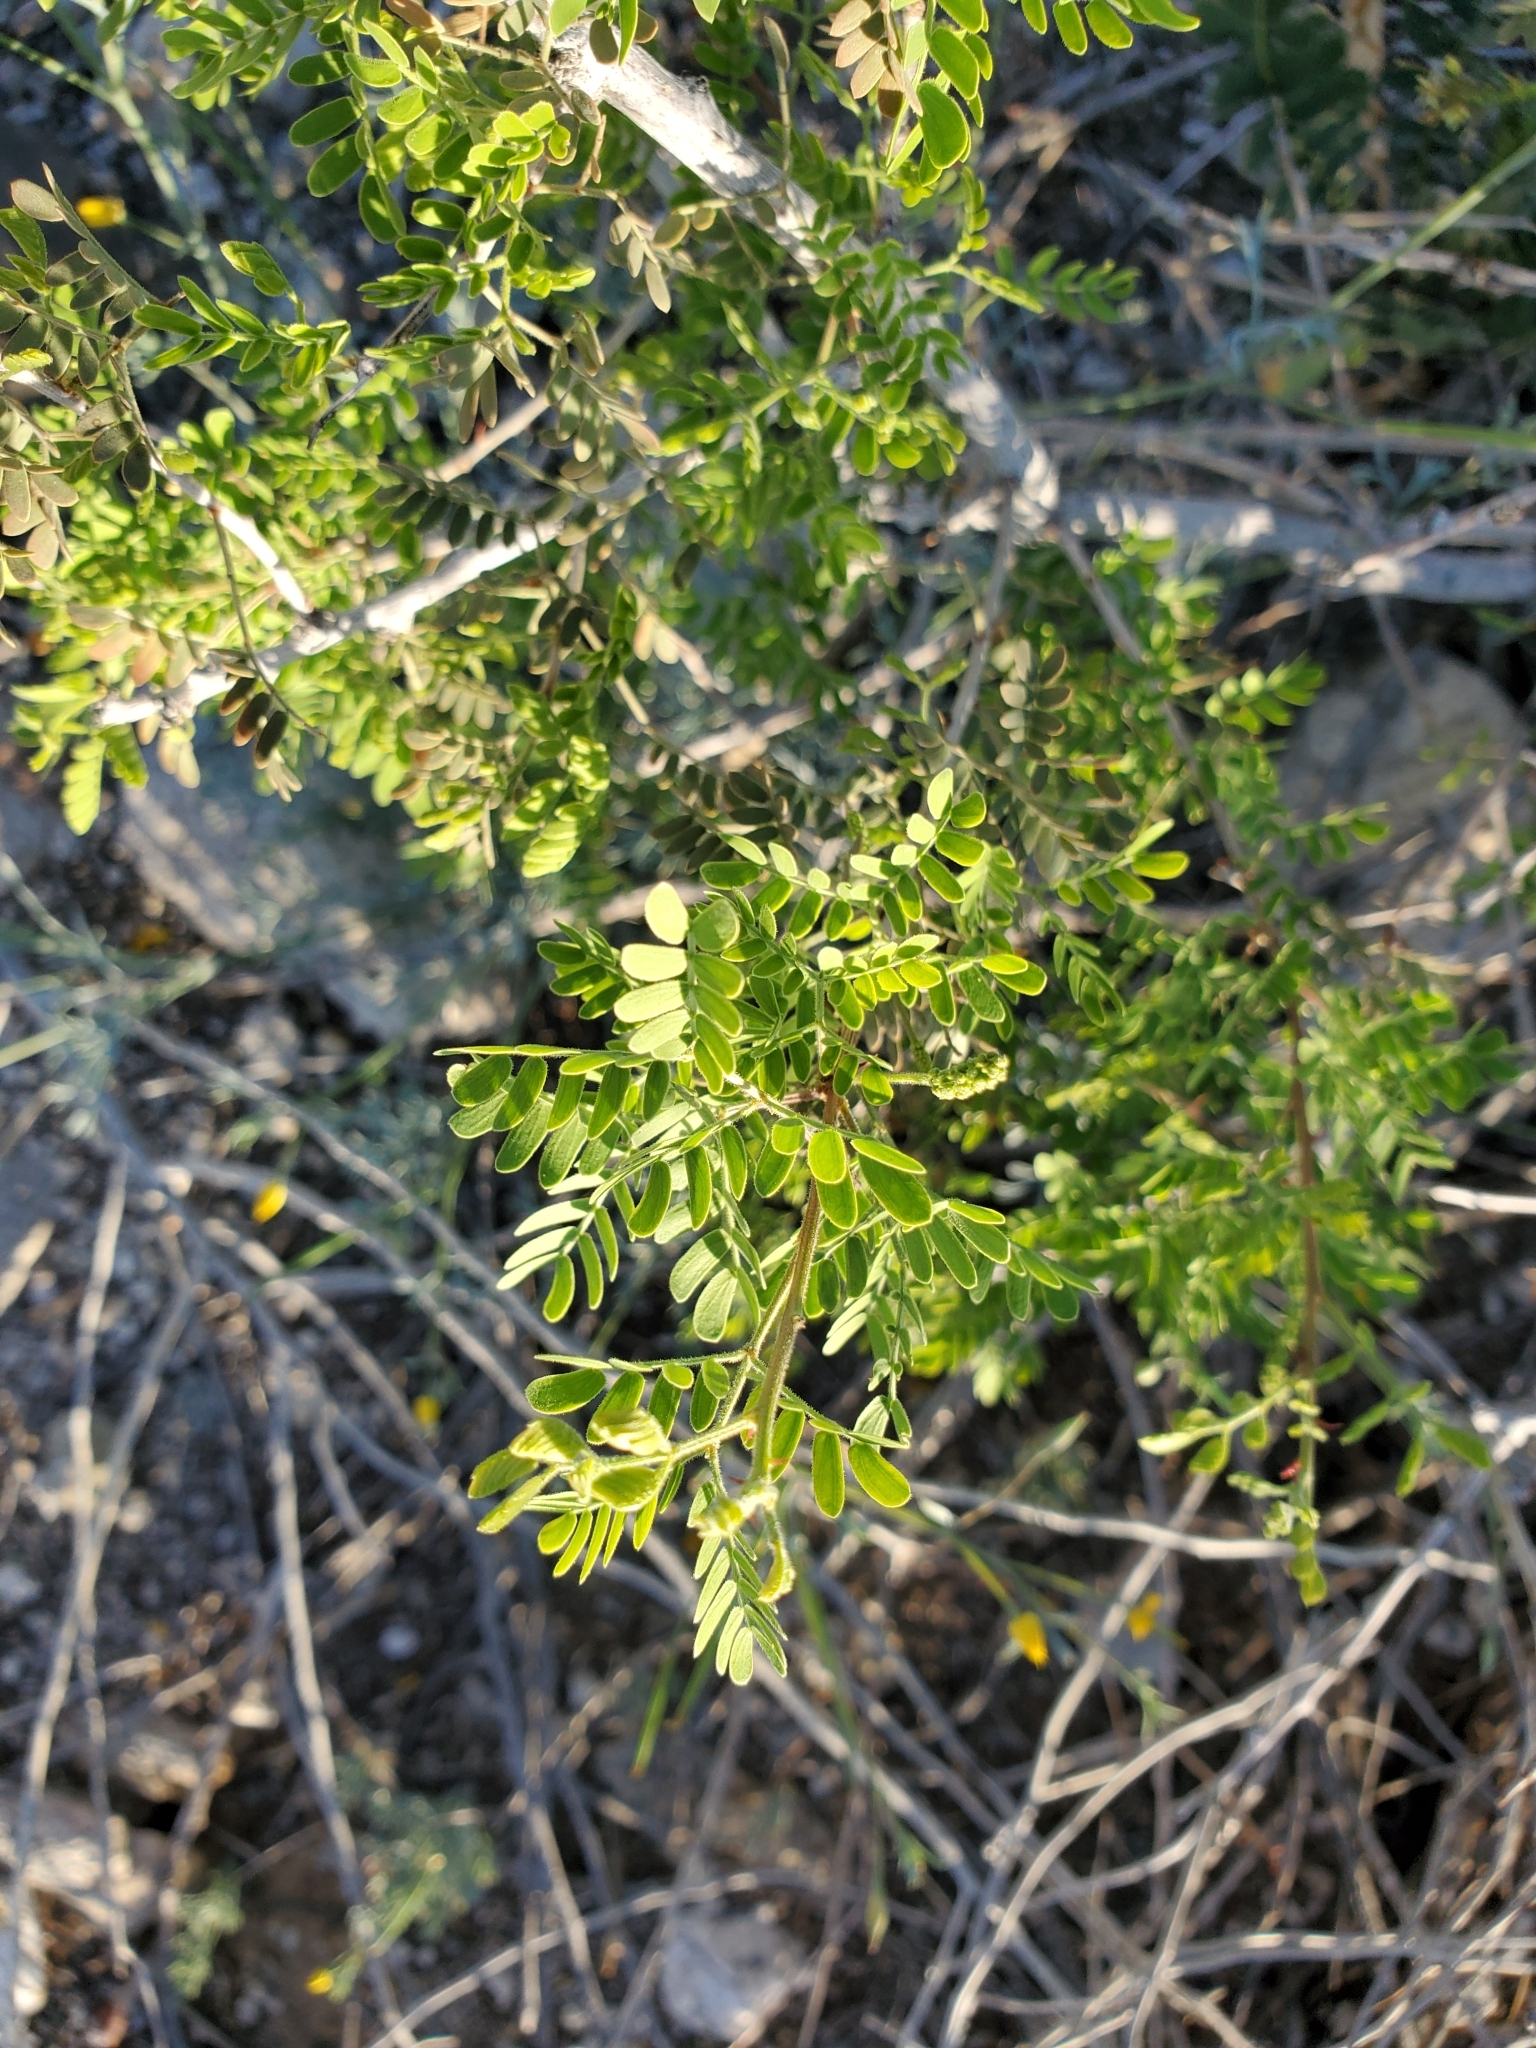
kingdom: Plantae
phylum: Tracheophyta
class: Magnoliopsida
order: Fabales
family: Fabaceae
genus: Senegalia
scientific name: Senegalia greggii
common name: Texas-mimosa
